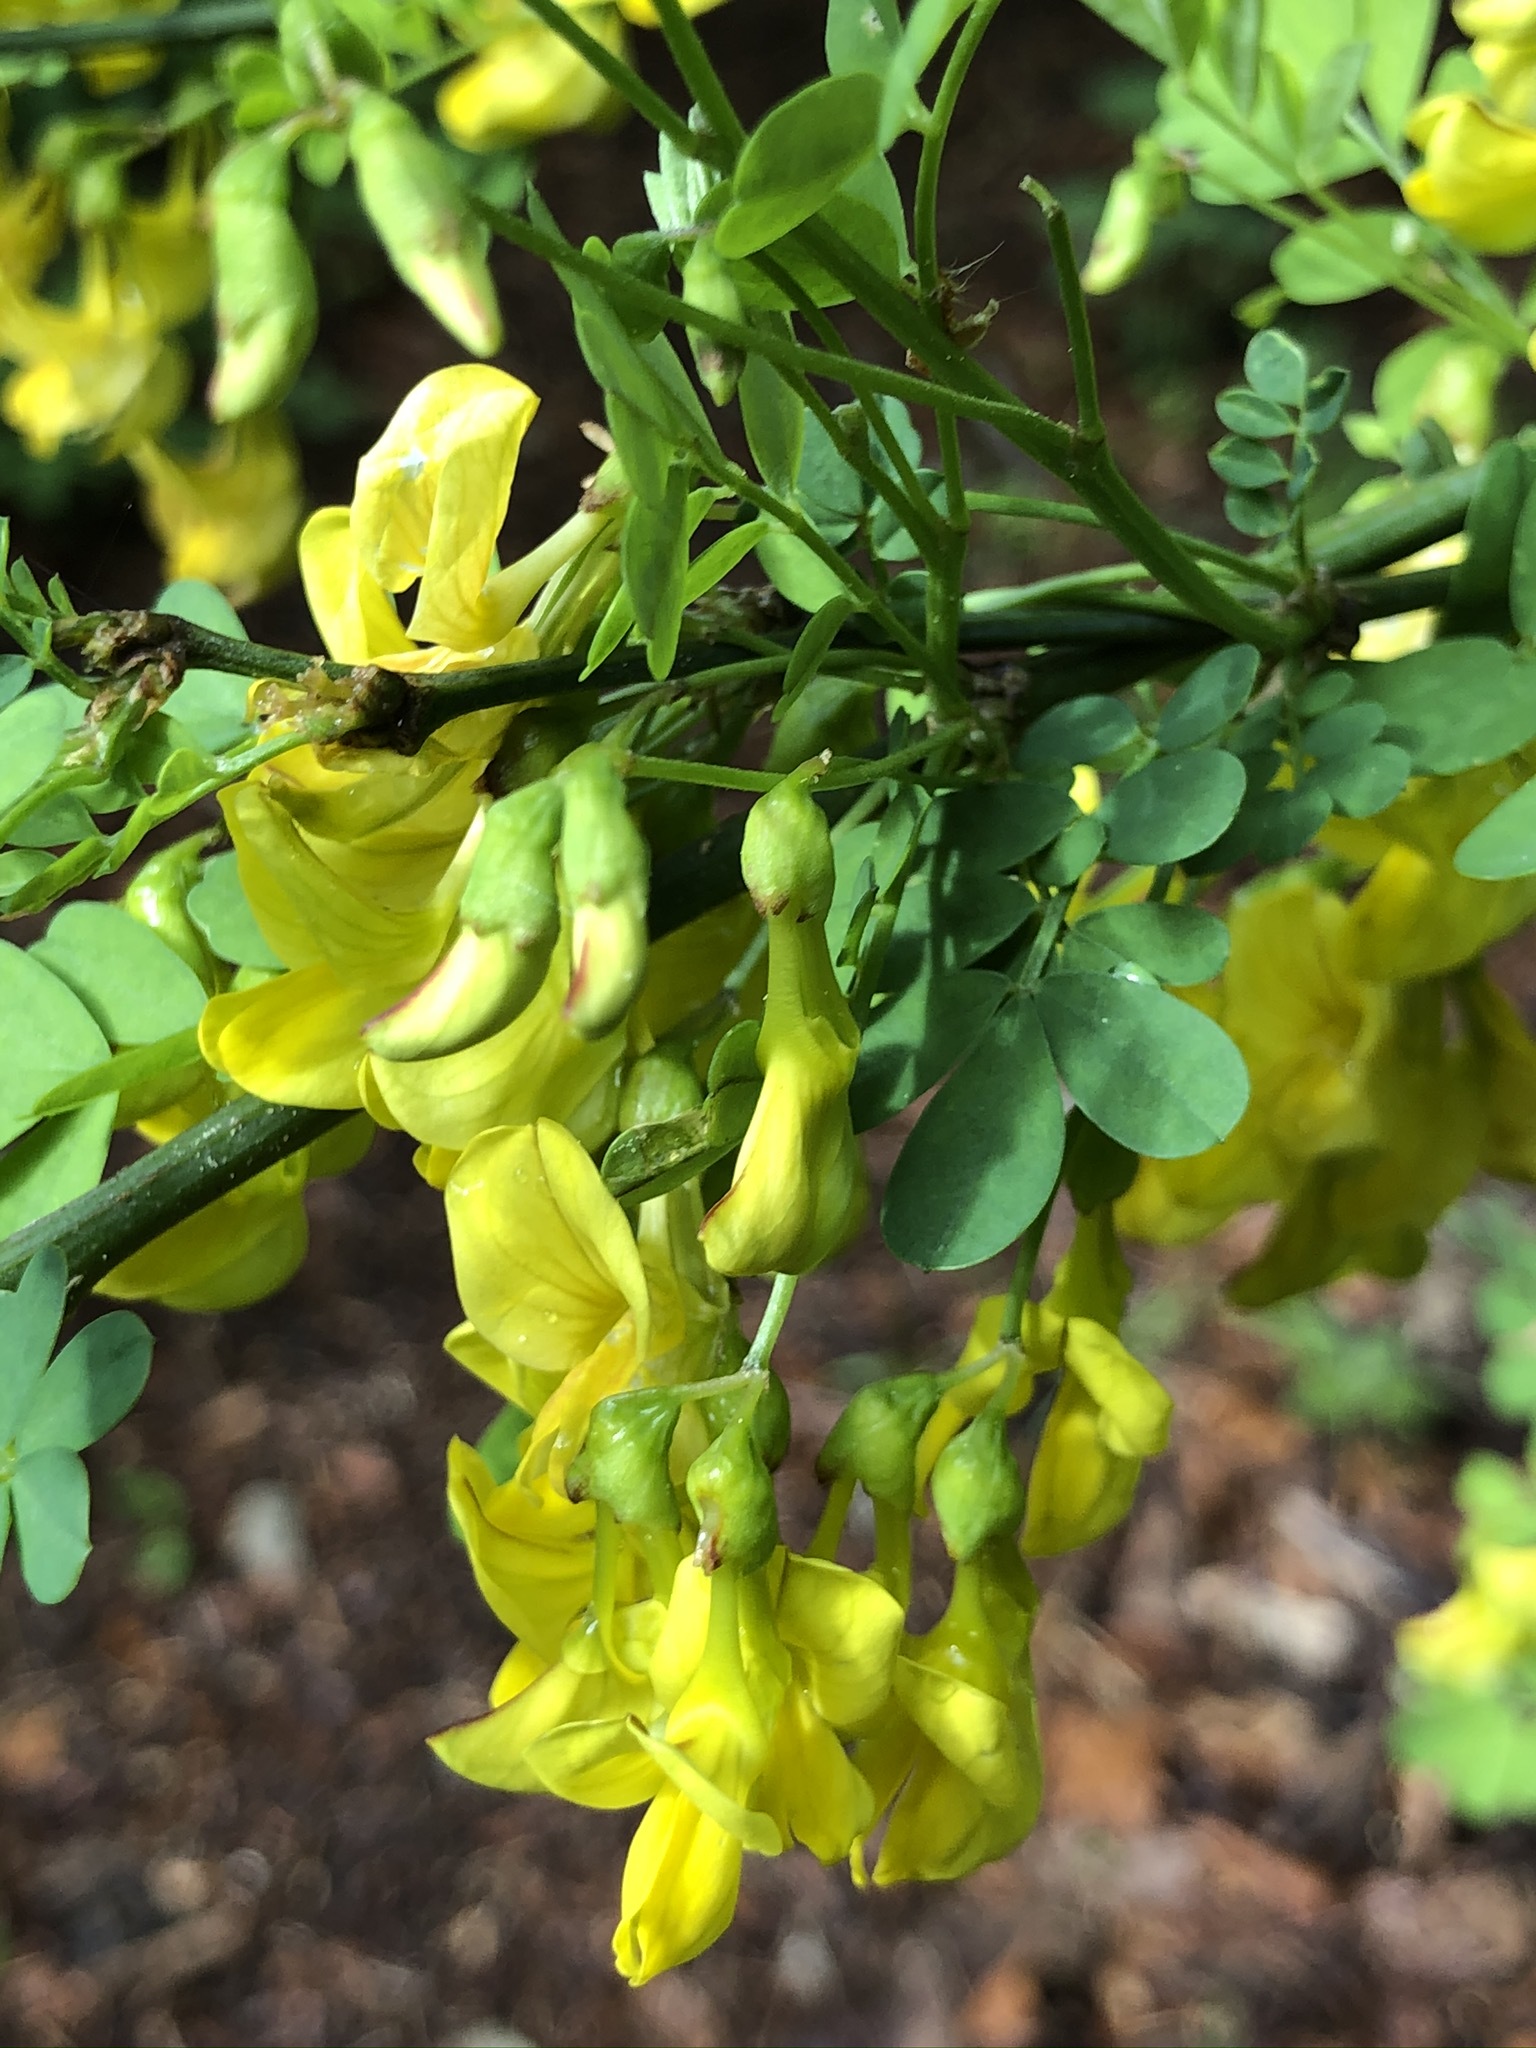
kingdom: Plantae
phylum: Tracheophyta
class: Magnoliopsida
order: Fabales
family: Fabaceae
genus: Hippocrepis
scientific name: Hippocrepis emerus
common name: Scorpion senna
